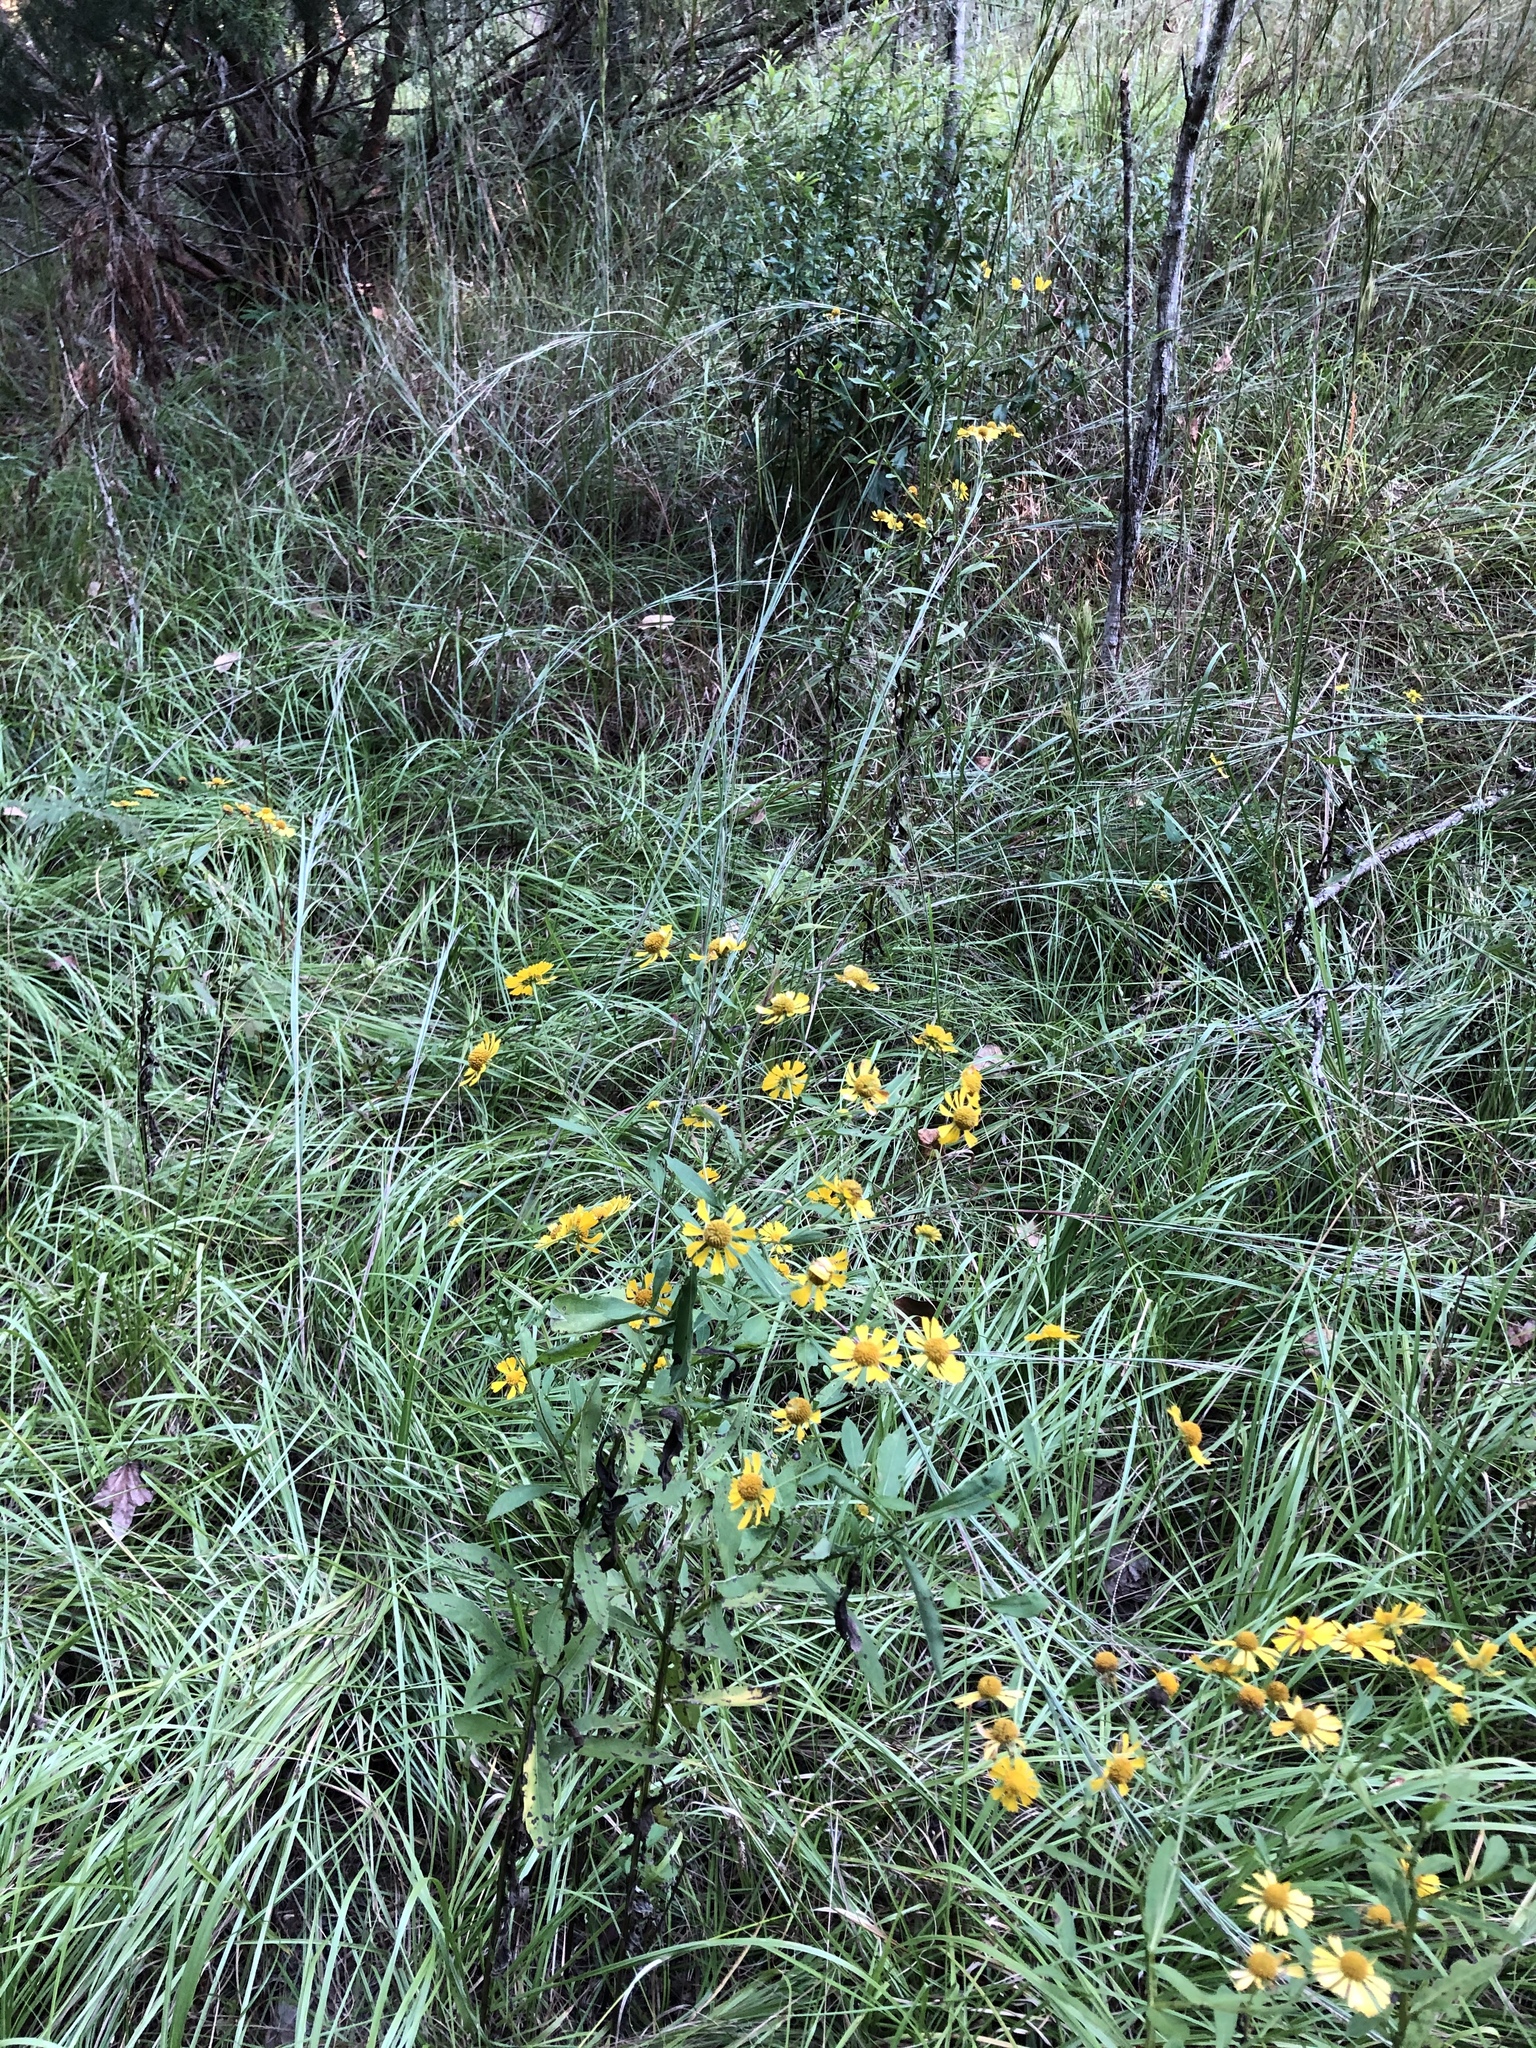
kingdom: Plantae
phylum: Tracheophyta
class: Magnoliopsida
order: Asterales
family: Asteraceae
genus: Helenium
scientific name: Helenium autumnale
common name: Sneezeweed
